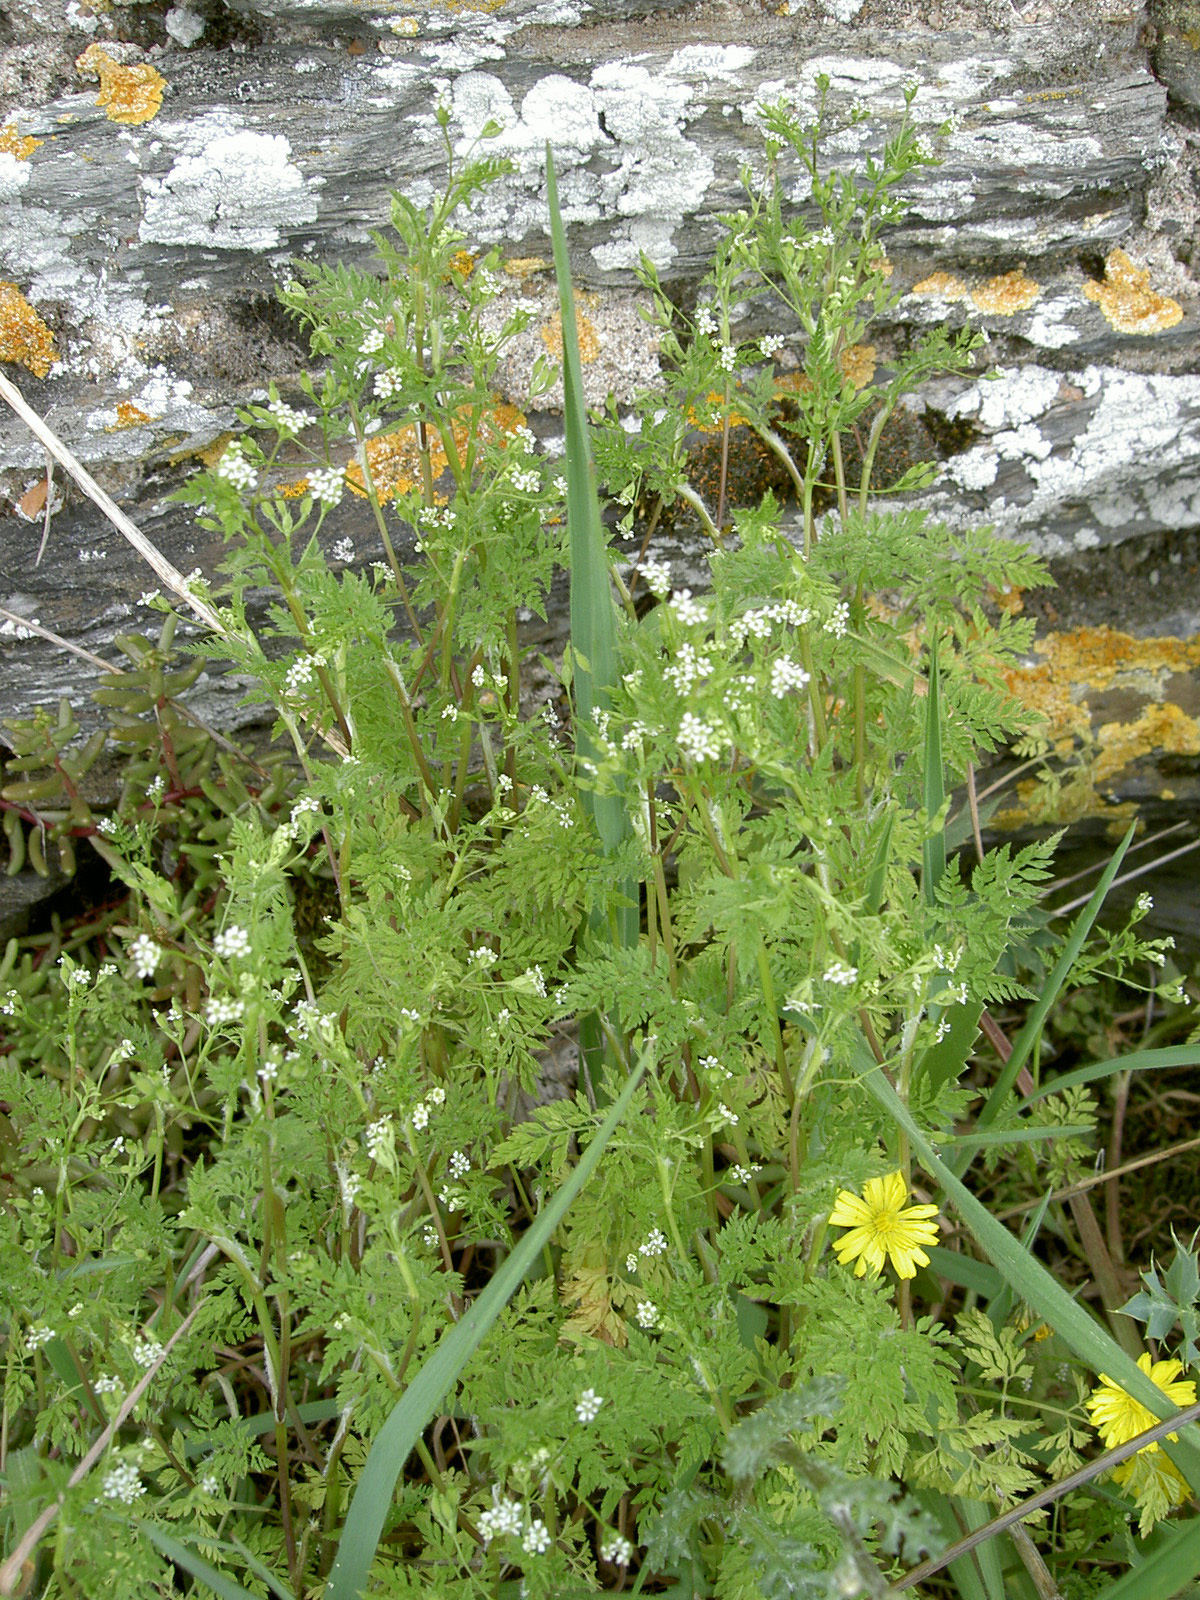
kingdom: Plantae
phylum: Tracheophyta
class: Magnoliopsida
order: Apiales
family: Apiaceae
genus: Anthriscus
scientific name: Anthriscus caucalis
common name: Bur chervil
